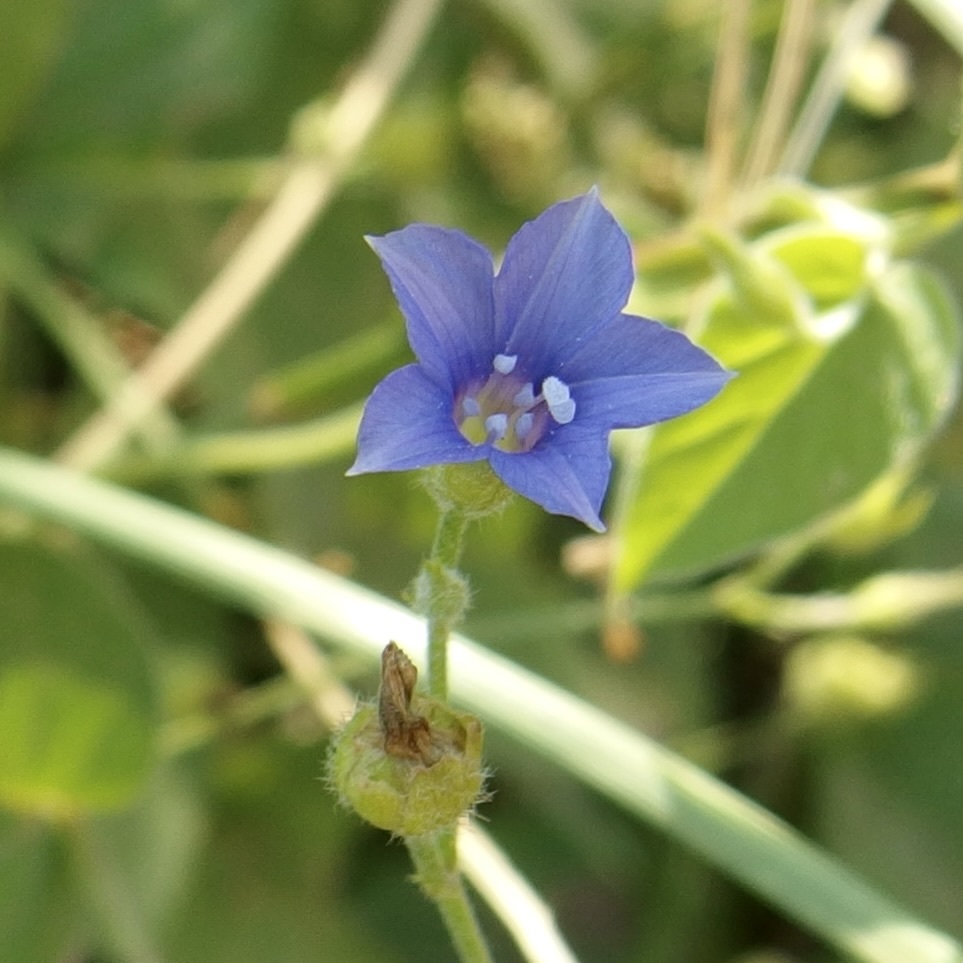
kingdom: Plantae
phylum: Tracheophyta
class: Magnoliopsida
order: Solanales
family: Convolvulaceae
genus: Jacquemontia
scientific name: Jacquemontia evolvuloides
